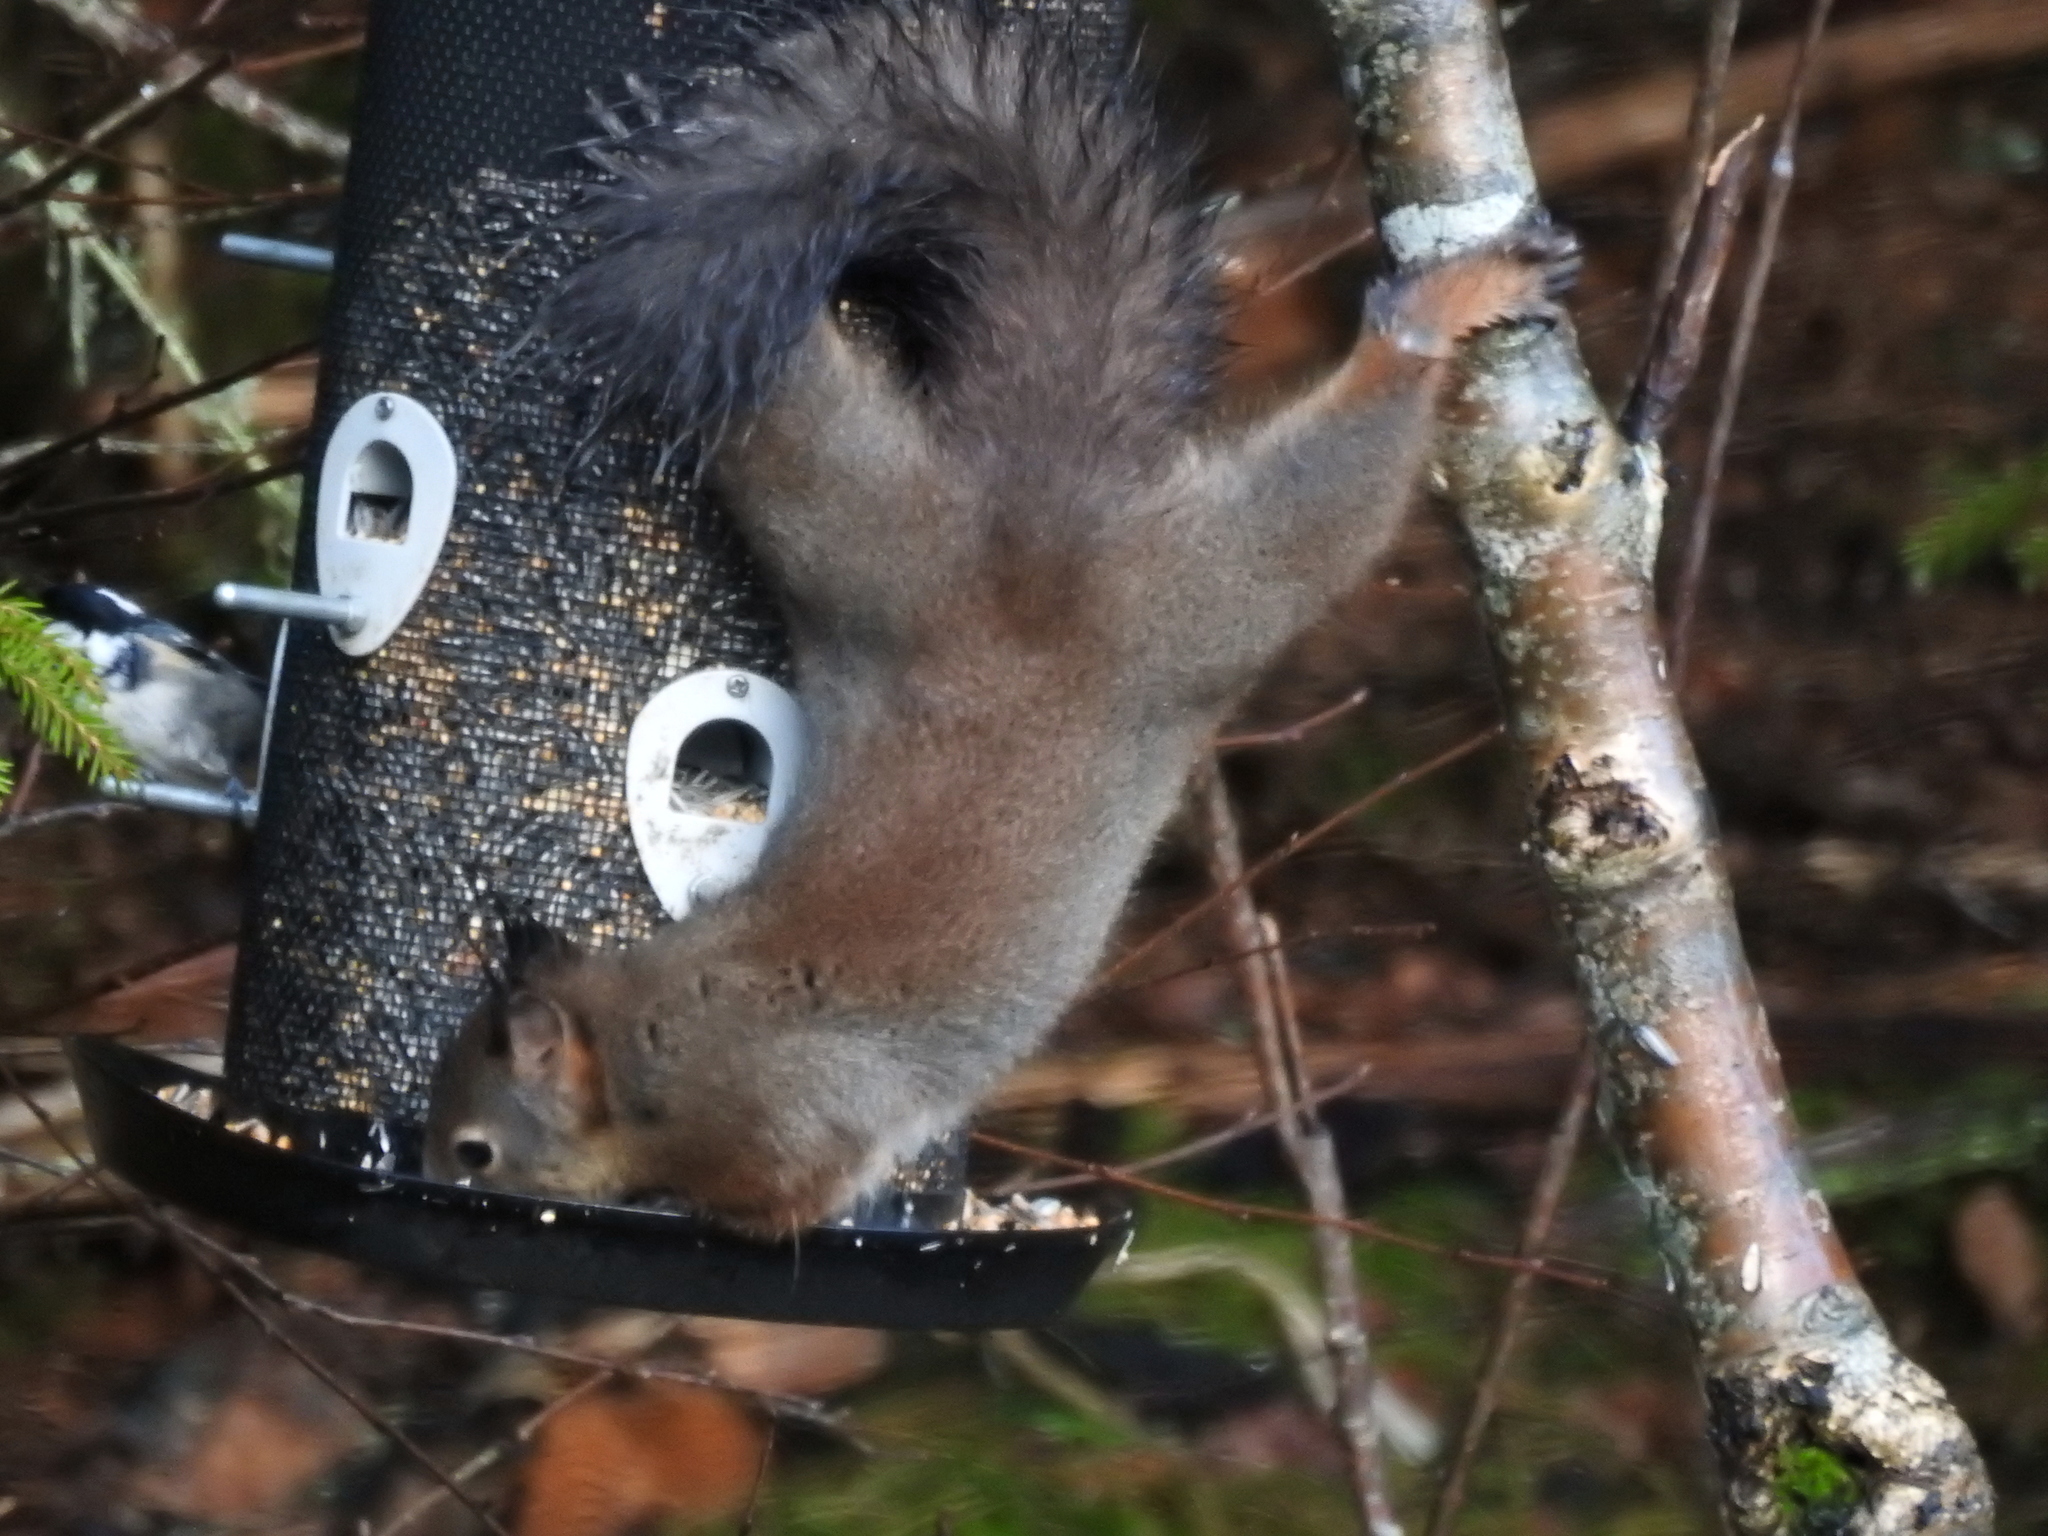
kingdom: Animalia
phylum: Chordata
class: Mammalia
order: Rodentia
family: Sciuridae
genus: Sciurus
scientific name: Sciurus vulgaris
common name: Eurasian red squirrel
